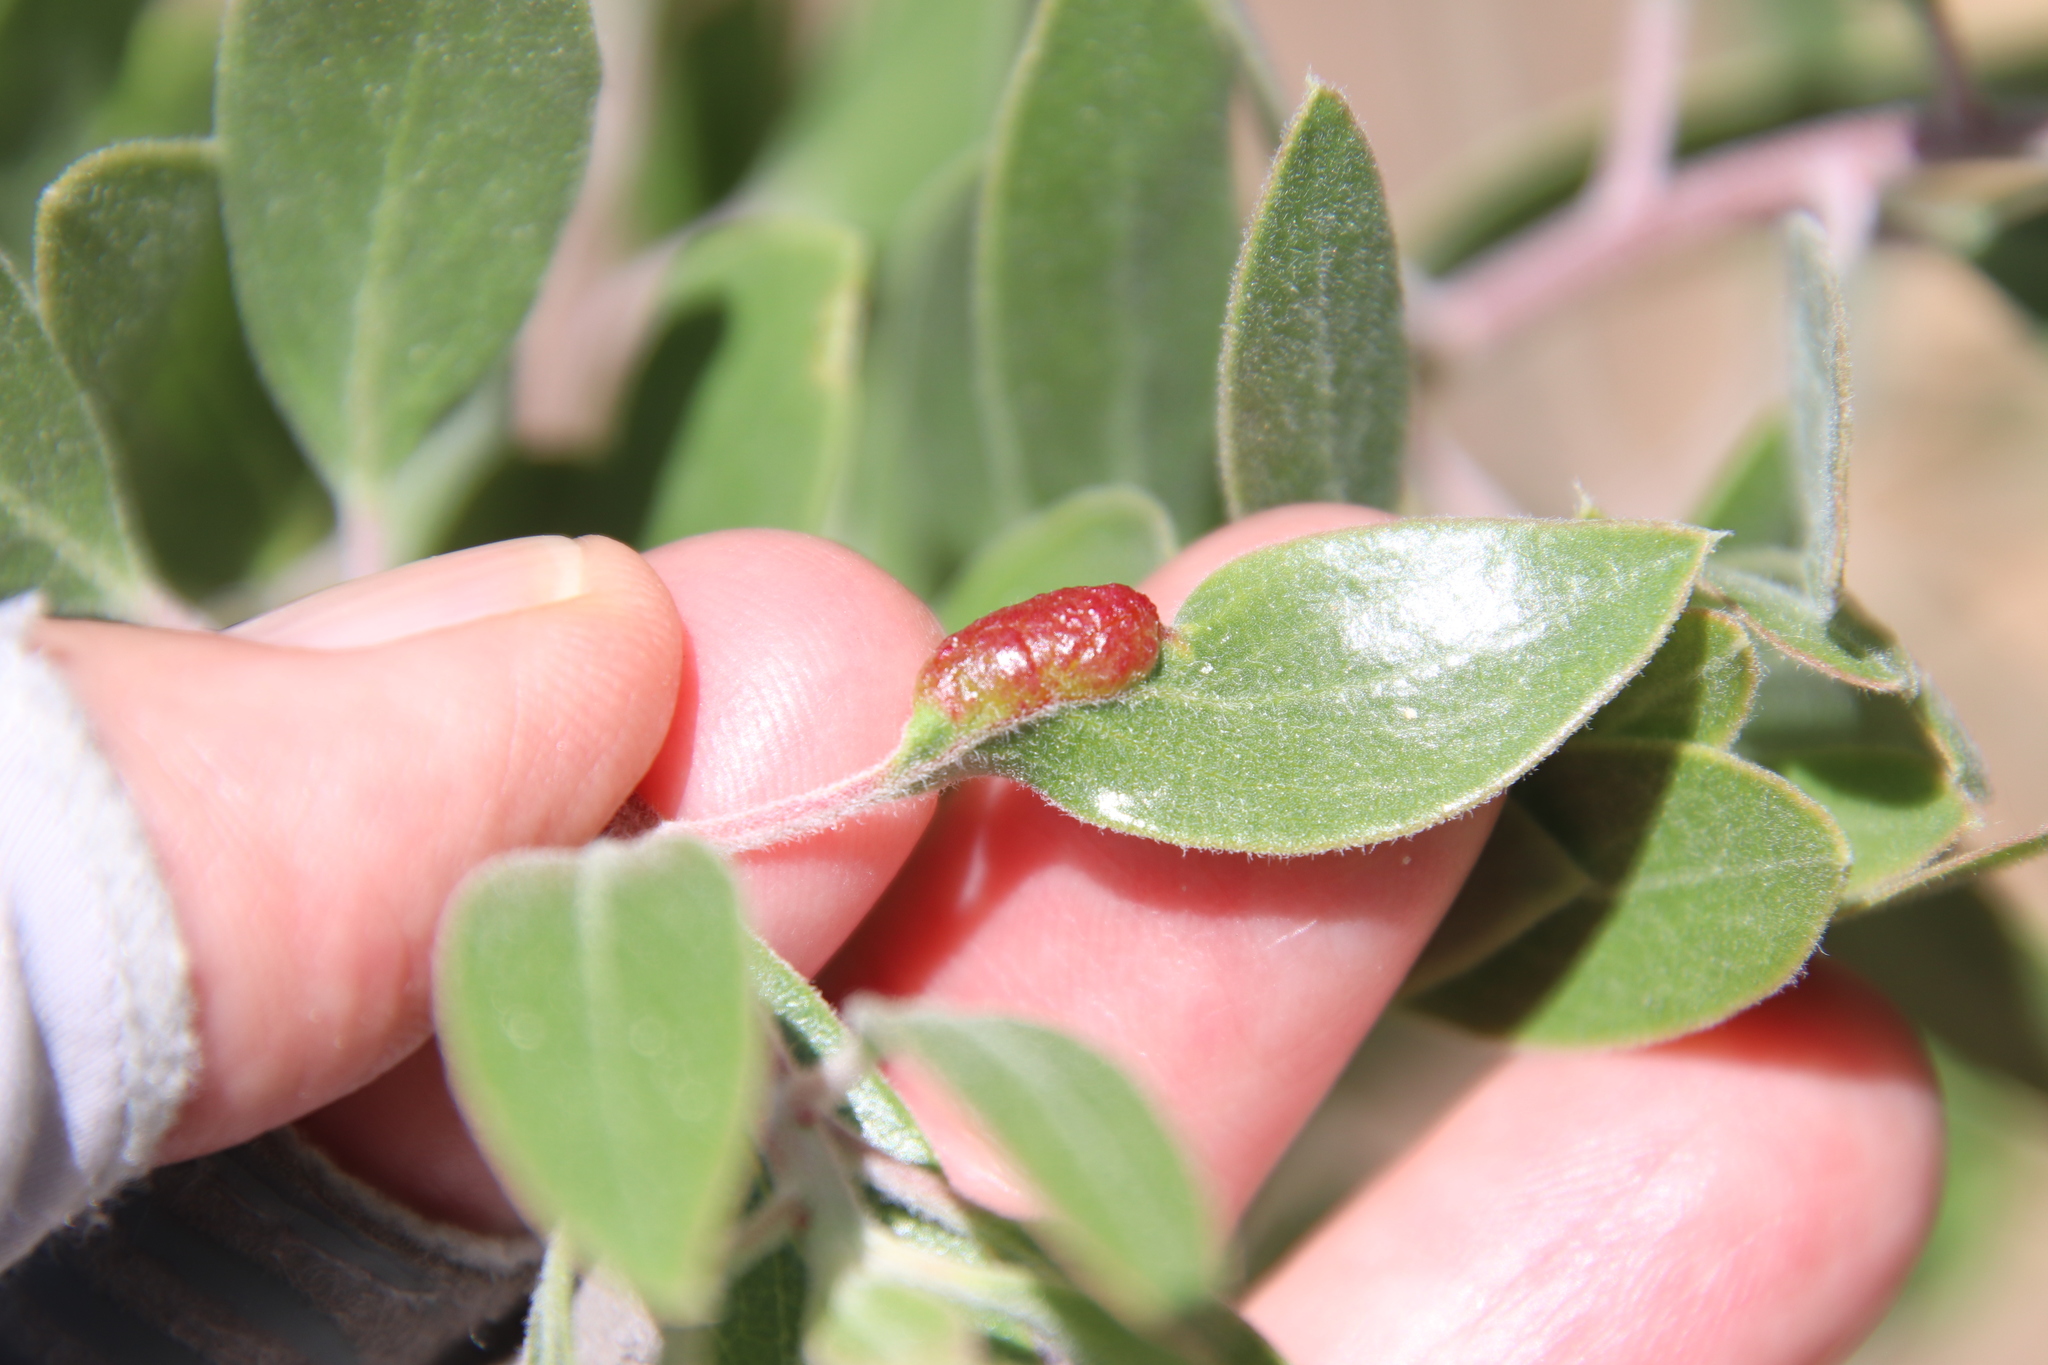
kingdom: Animalia
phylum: Arthropoda
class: Insecta
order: Hemiptera
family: Aphididae
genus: Tamalia
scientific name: Tamalia coweni
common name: Manzanita leafgall aphid
